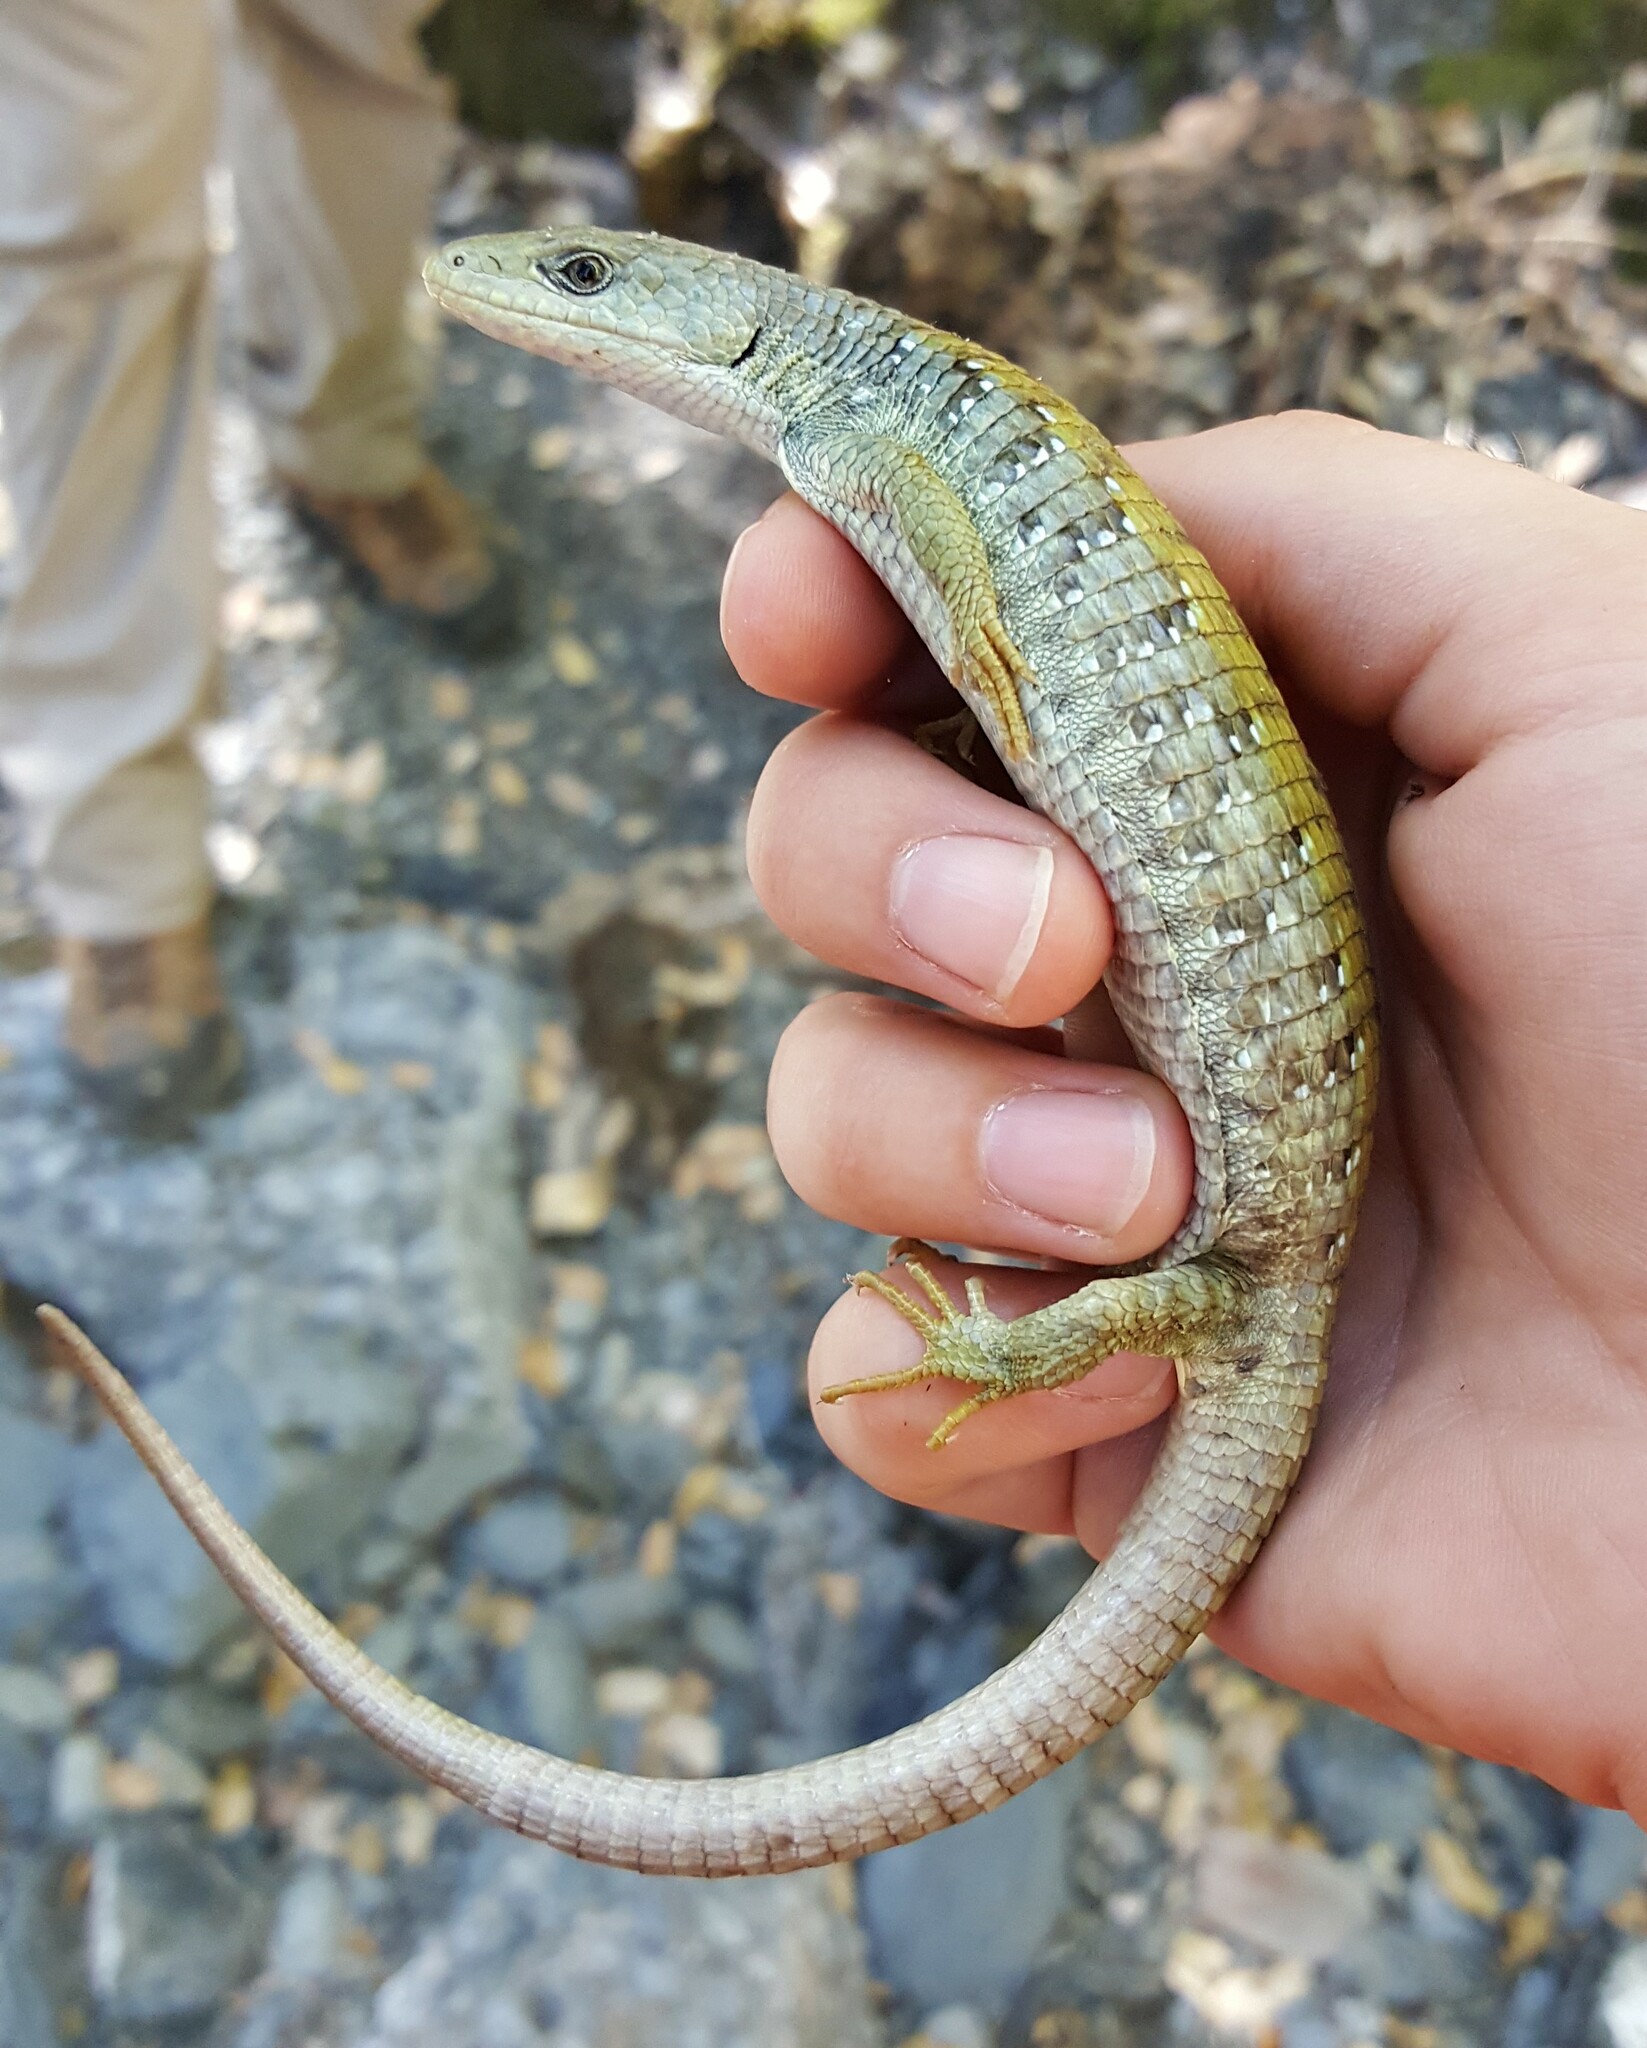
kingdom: Animalia
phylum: Chordata
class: Squamata
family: Anguidae
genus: Elgaria
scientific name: Elgaria coerulea
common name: Northern alligator lizard
